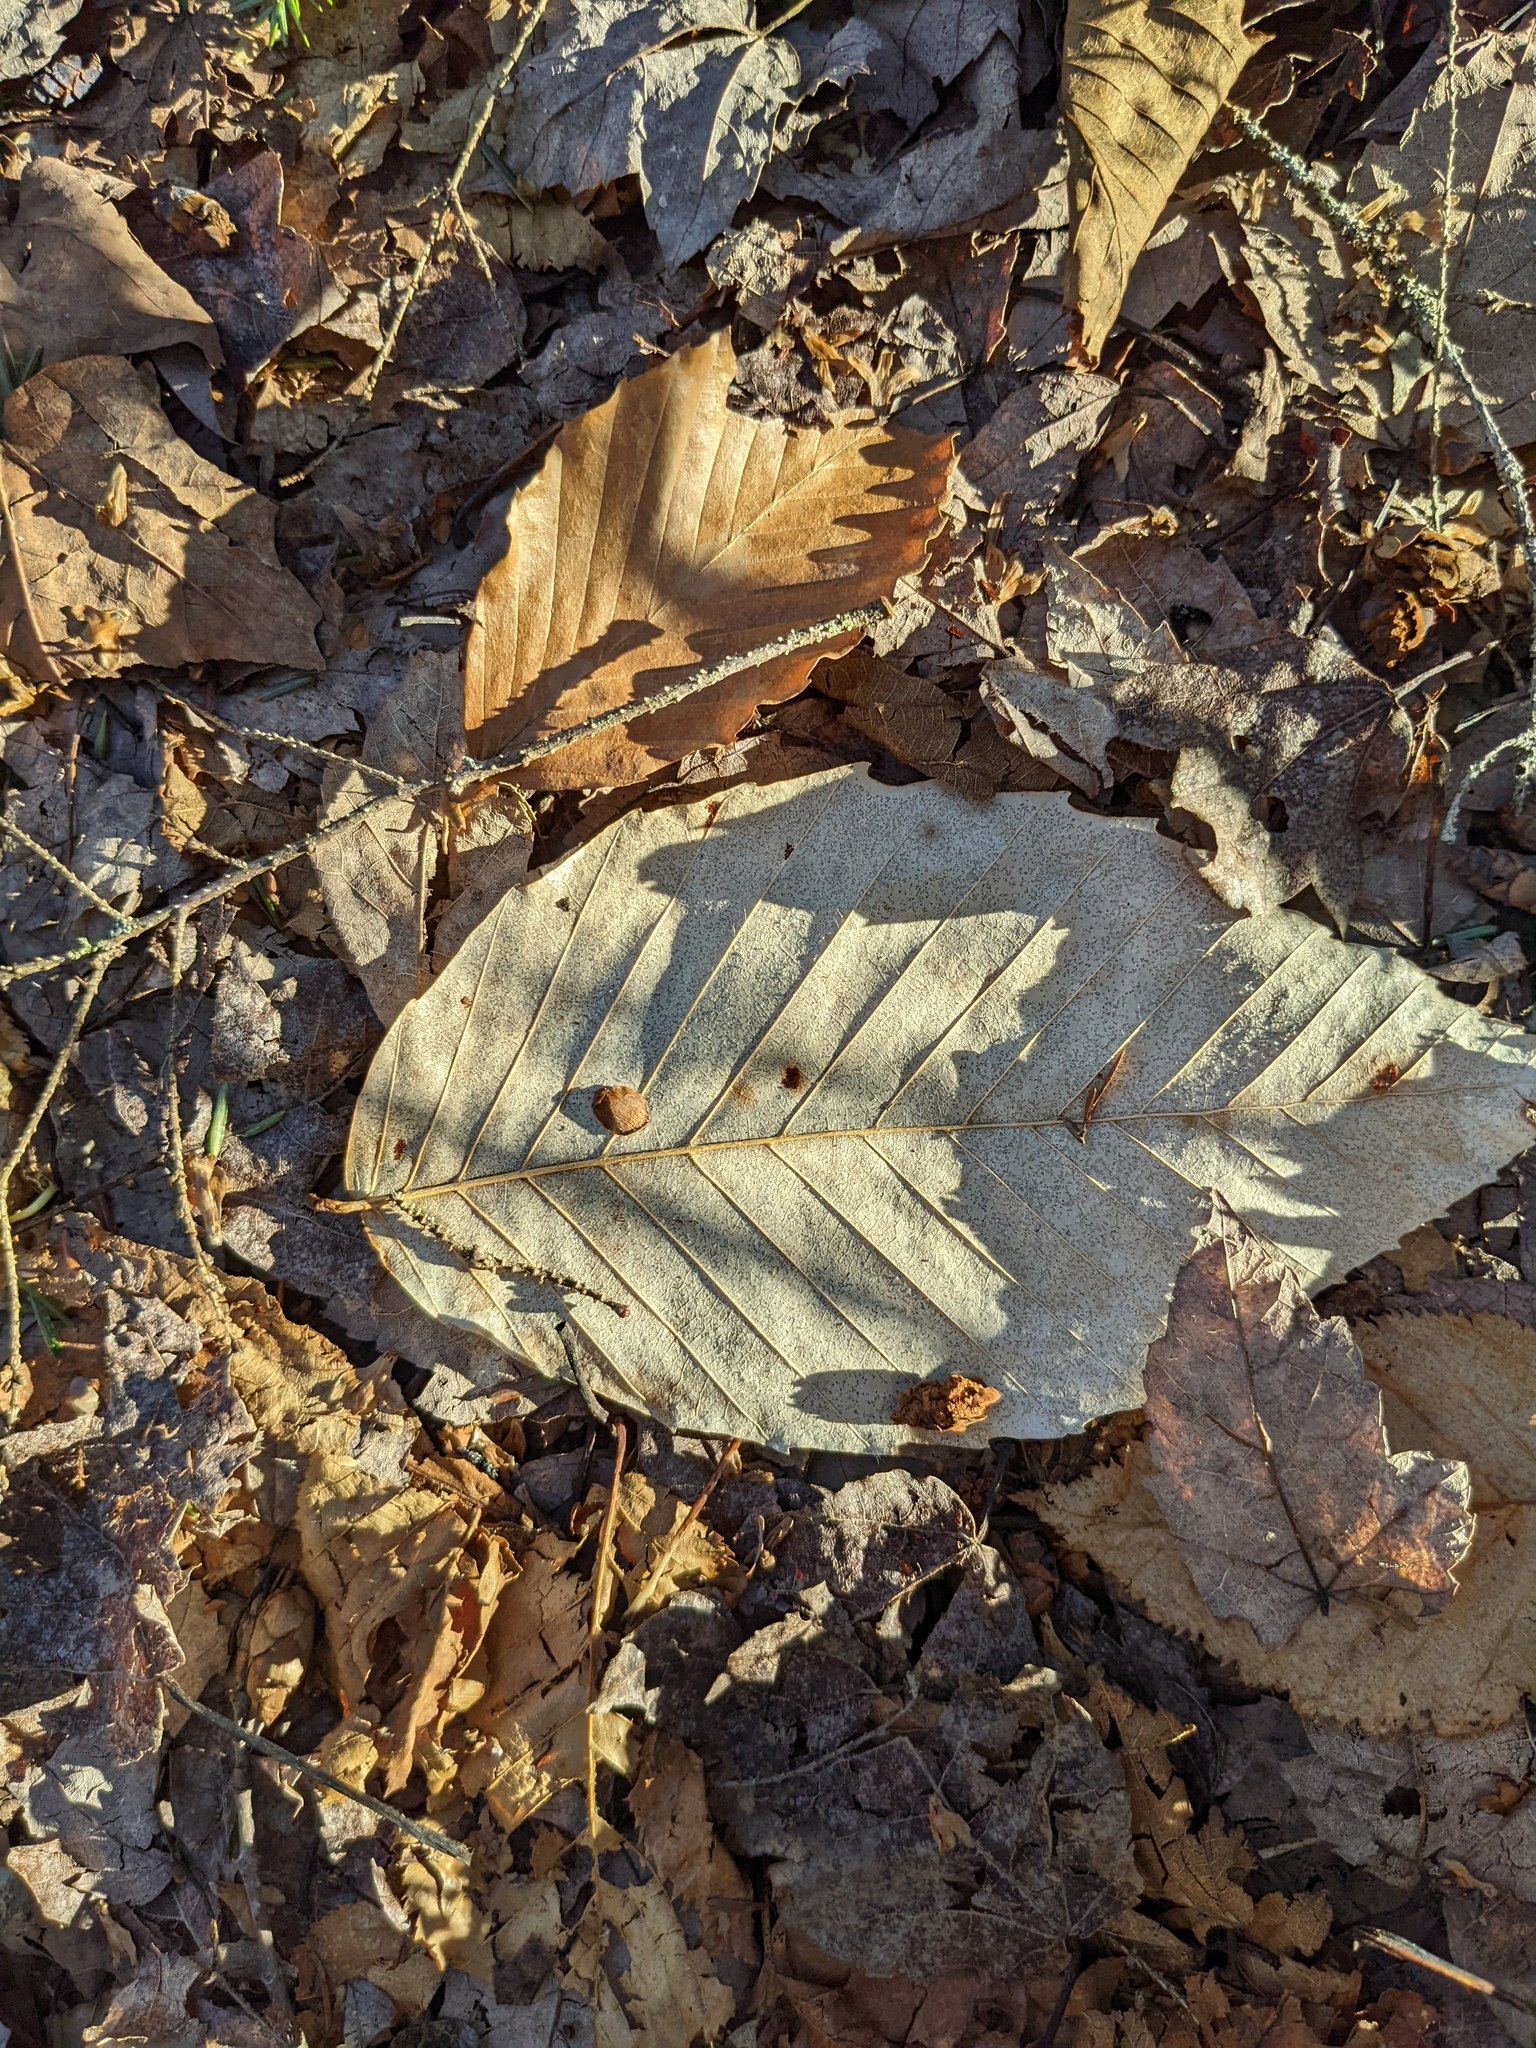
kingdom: Plantae
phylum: Tracheophyta
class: Magnoliopsida
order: Fagales
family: Fagaceae
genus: Fagus
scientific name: Fagus grandifolia
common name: American beech
